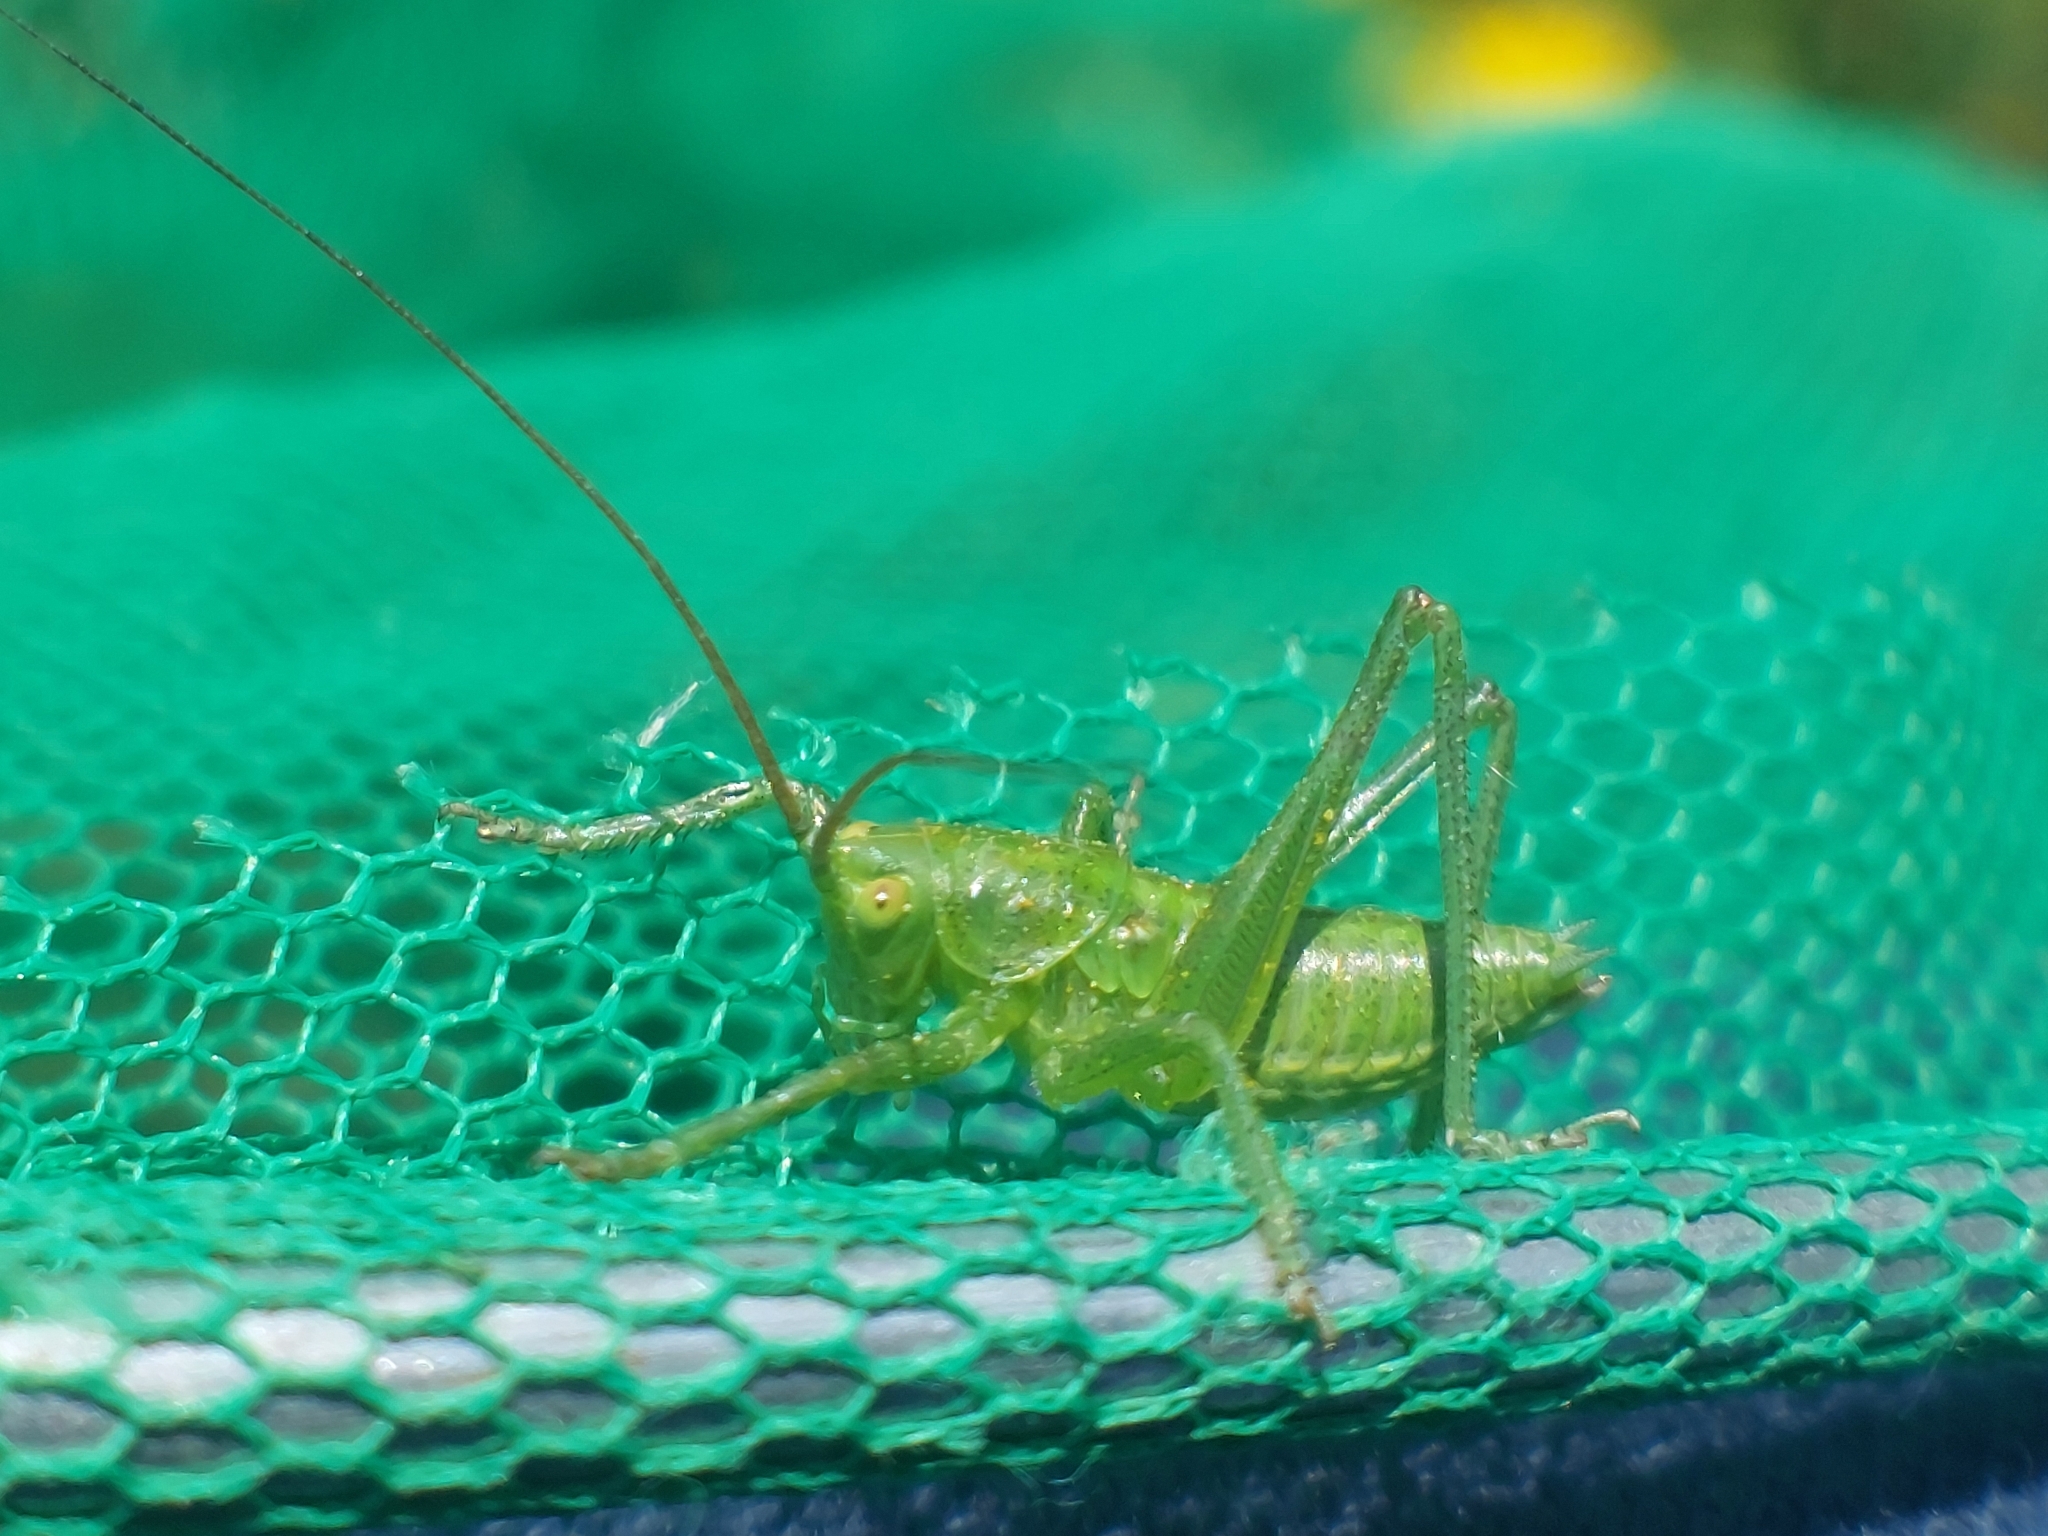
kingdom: Animalia
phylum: Arthropoda
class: Insecta
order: Orthoptera
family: Tettigoniidae
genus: Tettigonia
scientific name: Tettigonia viridissima
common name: Great green bush-cricket
